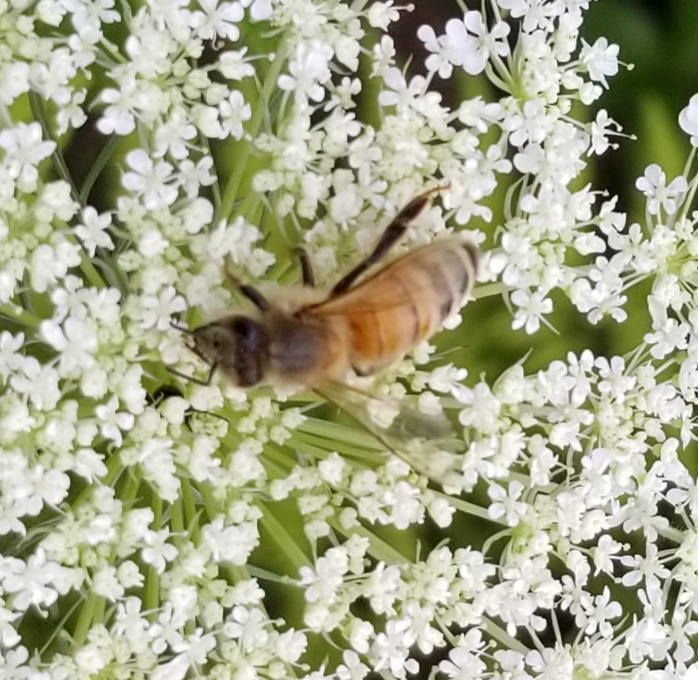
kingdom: Animalia
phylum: Arthropoda
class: Insecta
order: Hymenoptera
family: Apidae
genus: Apis
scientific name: Apis mellifera
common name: Honey bee
